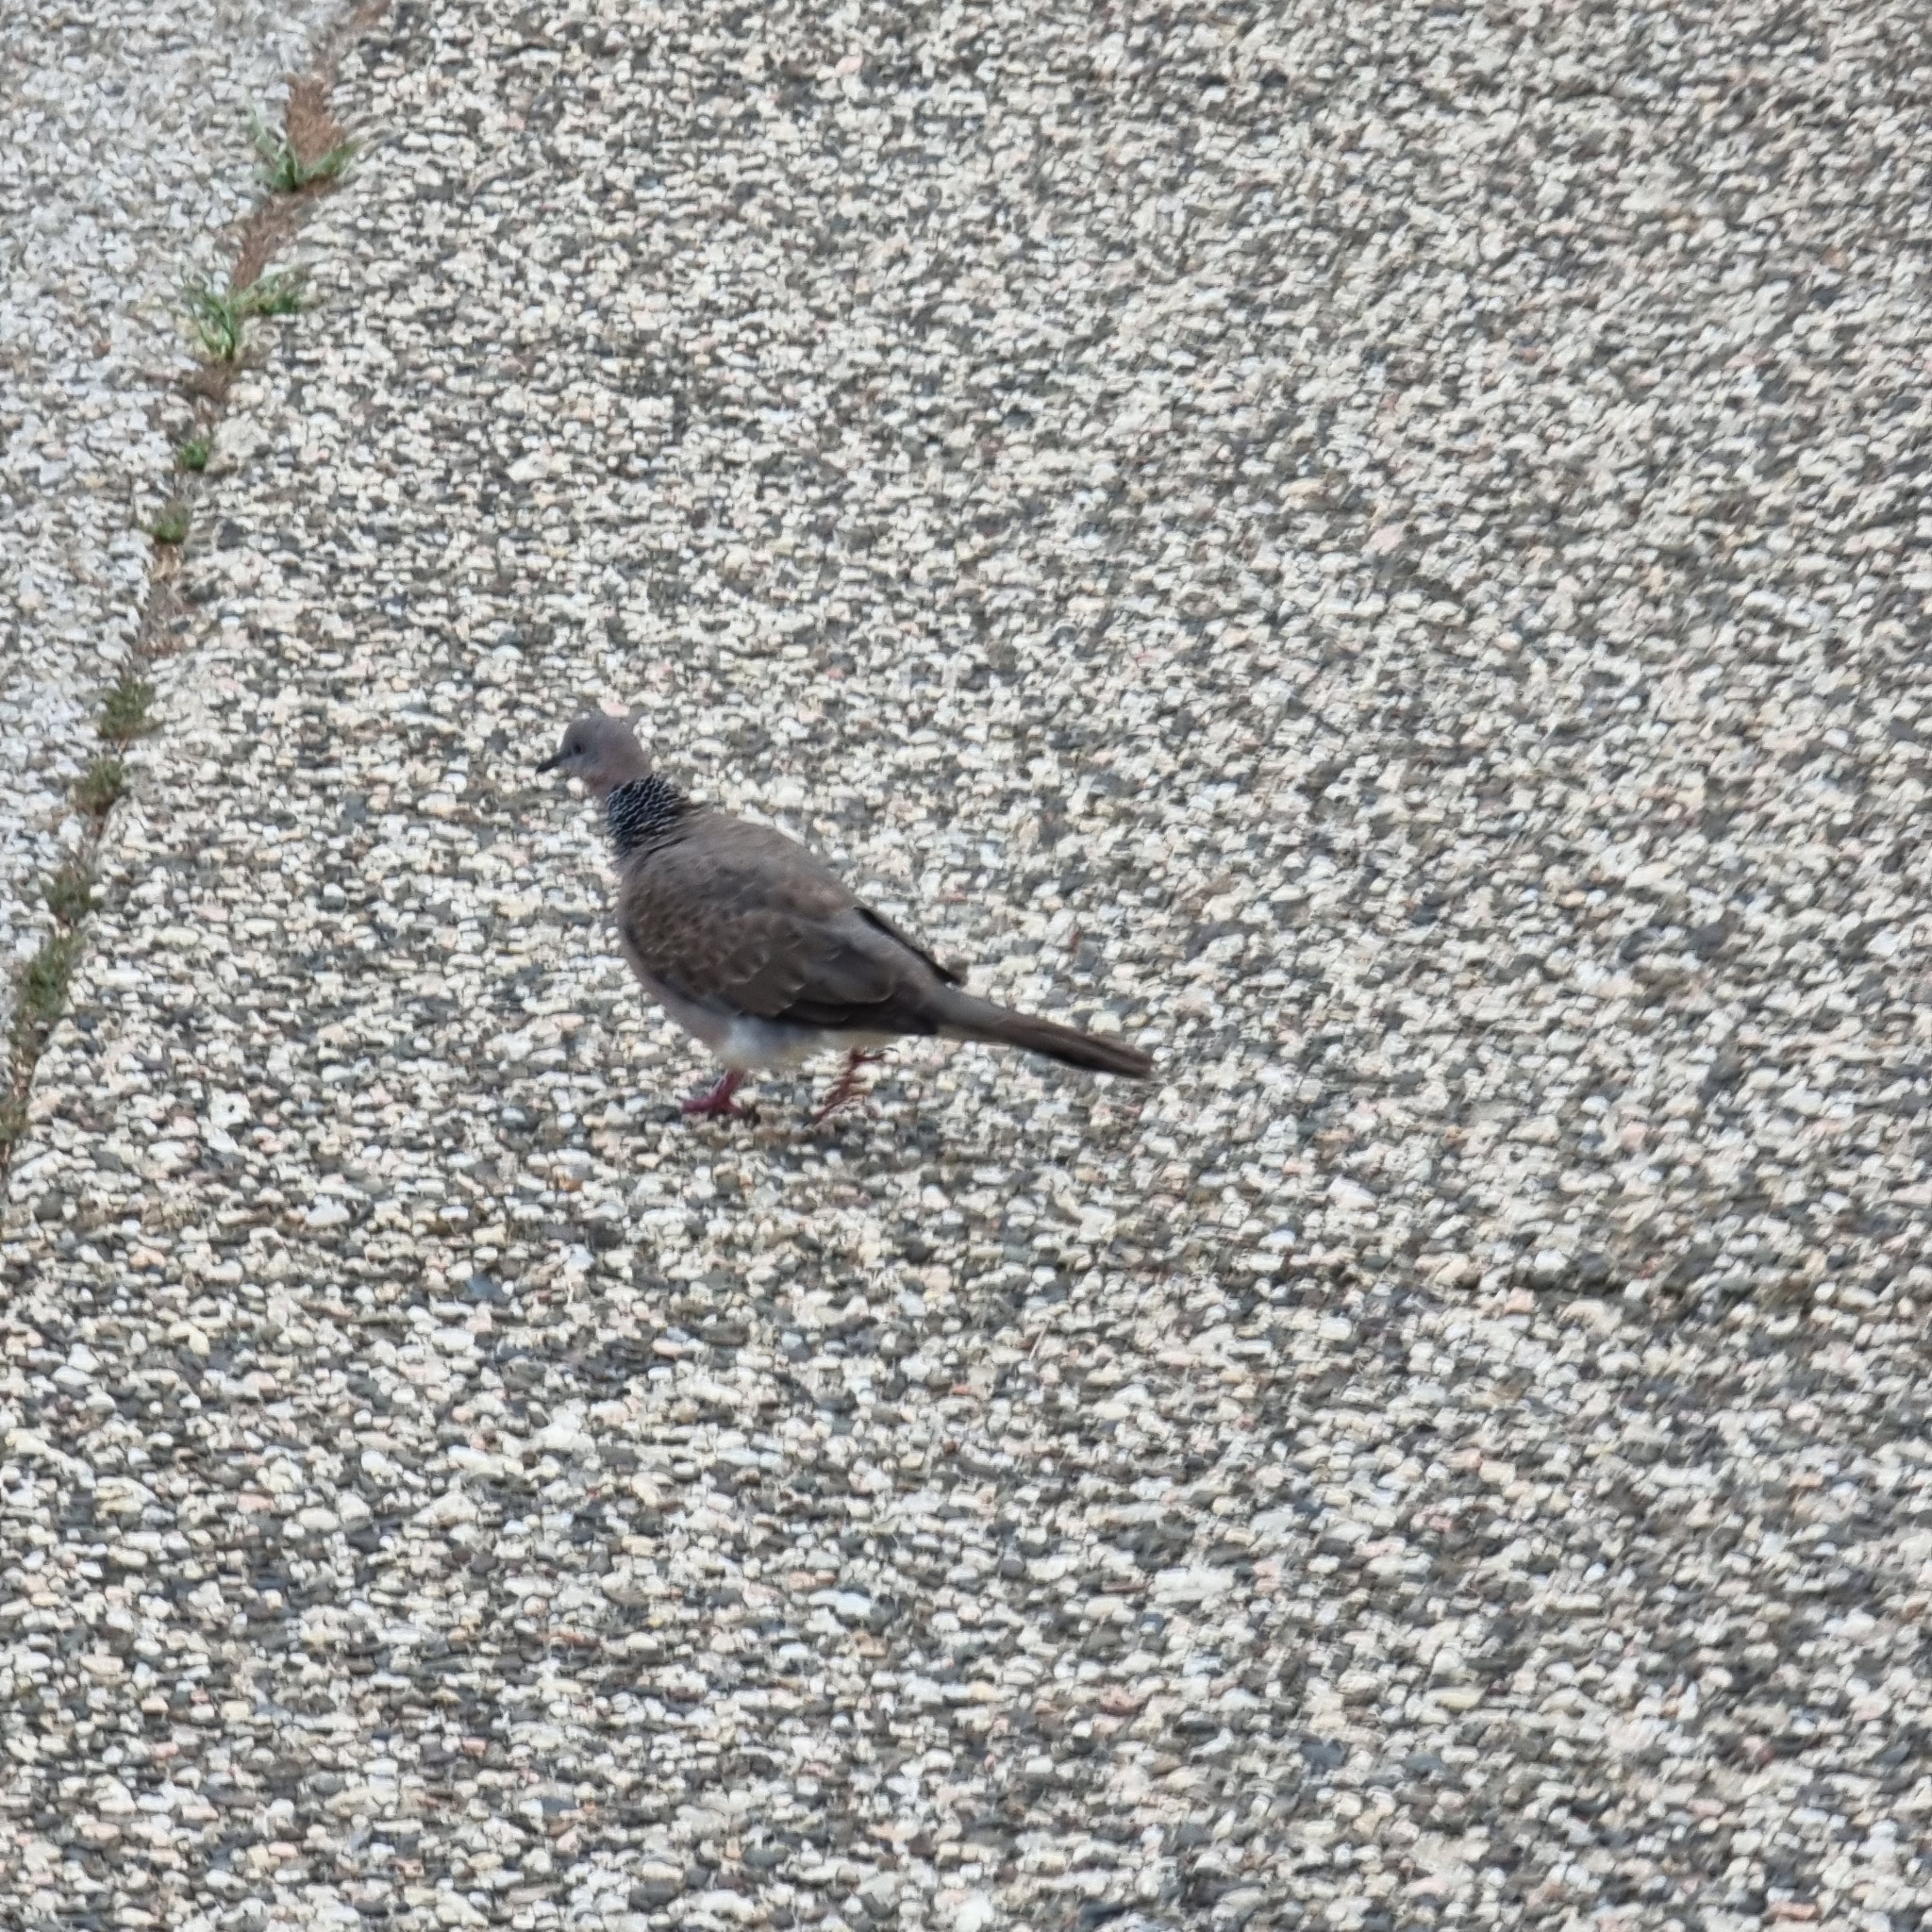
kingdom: Animalia
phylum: Chordata
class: Aves
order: Columbiformes
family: Columbidae
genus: Spilopelia
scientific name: Spilopelia chinensis
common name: Spotted dove
